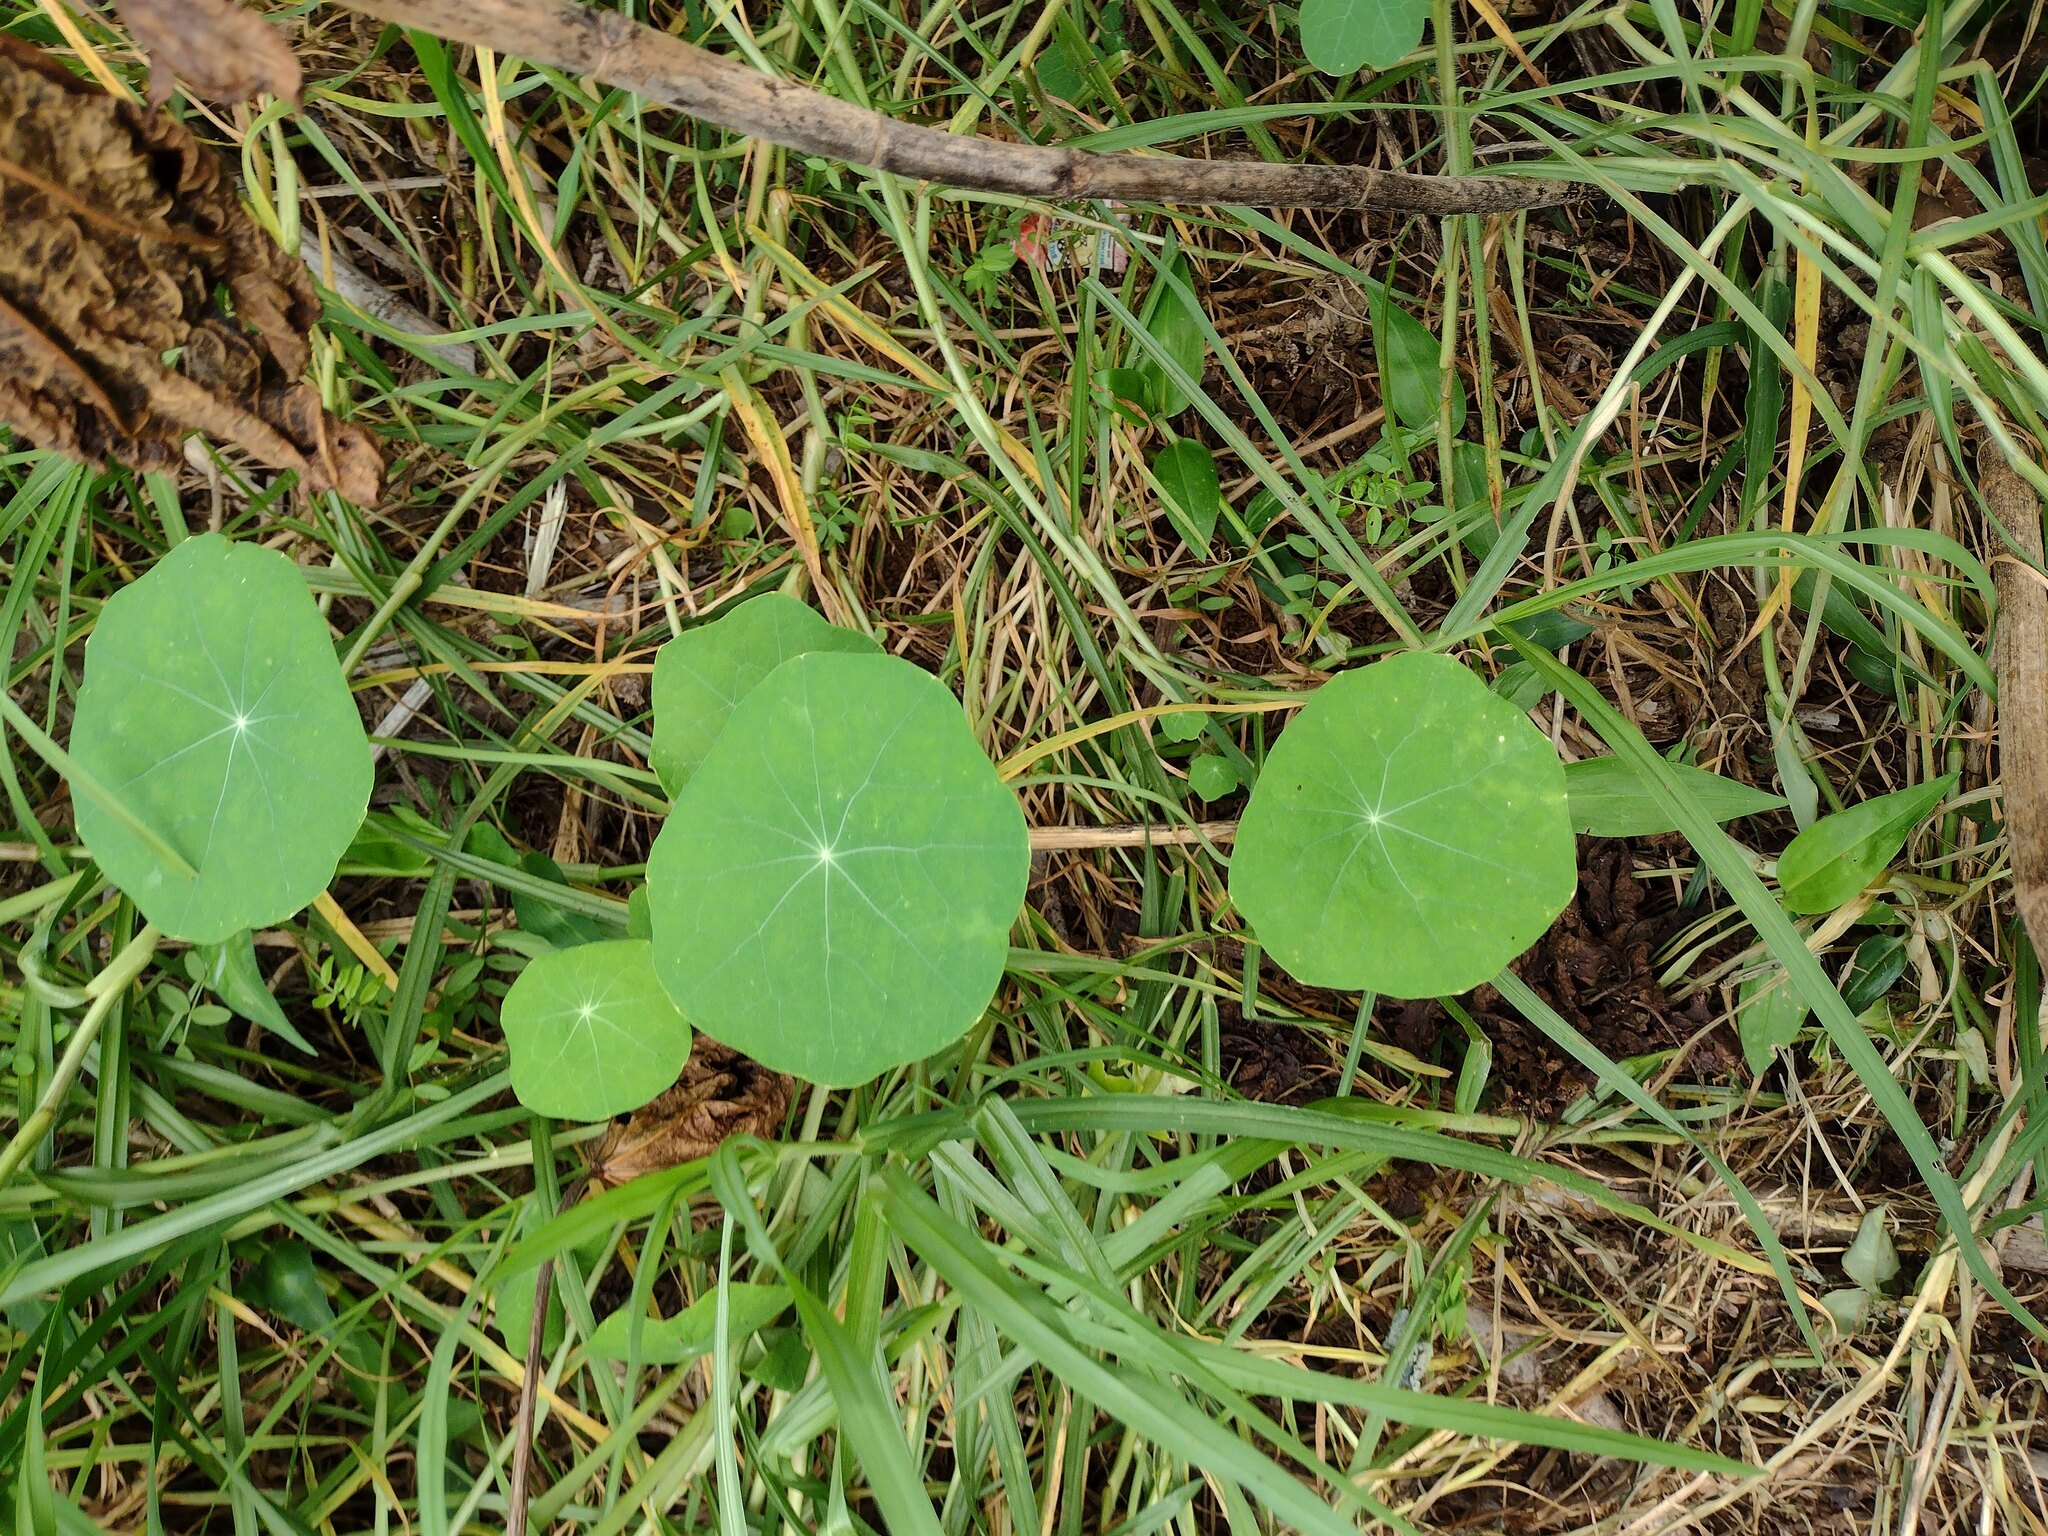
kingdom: Plantae
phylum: Tracheophyta
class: Magnoliopsida
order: Brassicales
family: Tropaeolaceae
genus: Tropaeolum
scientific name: Tropaeolum majus
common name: Nasturtium
